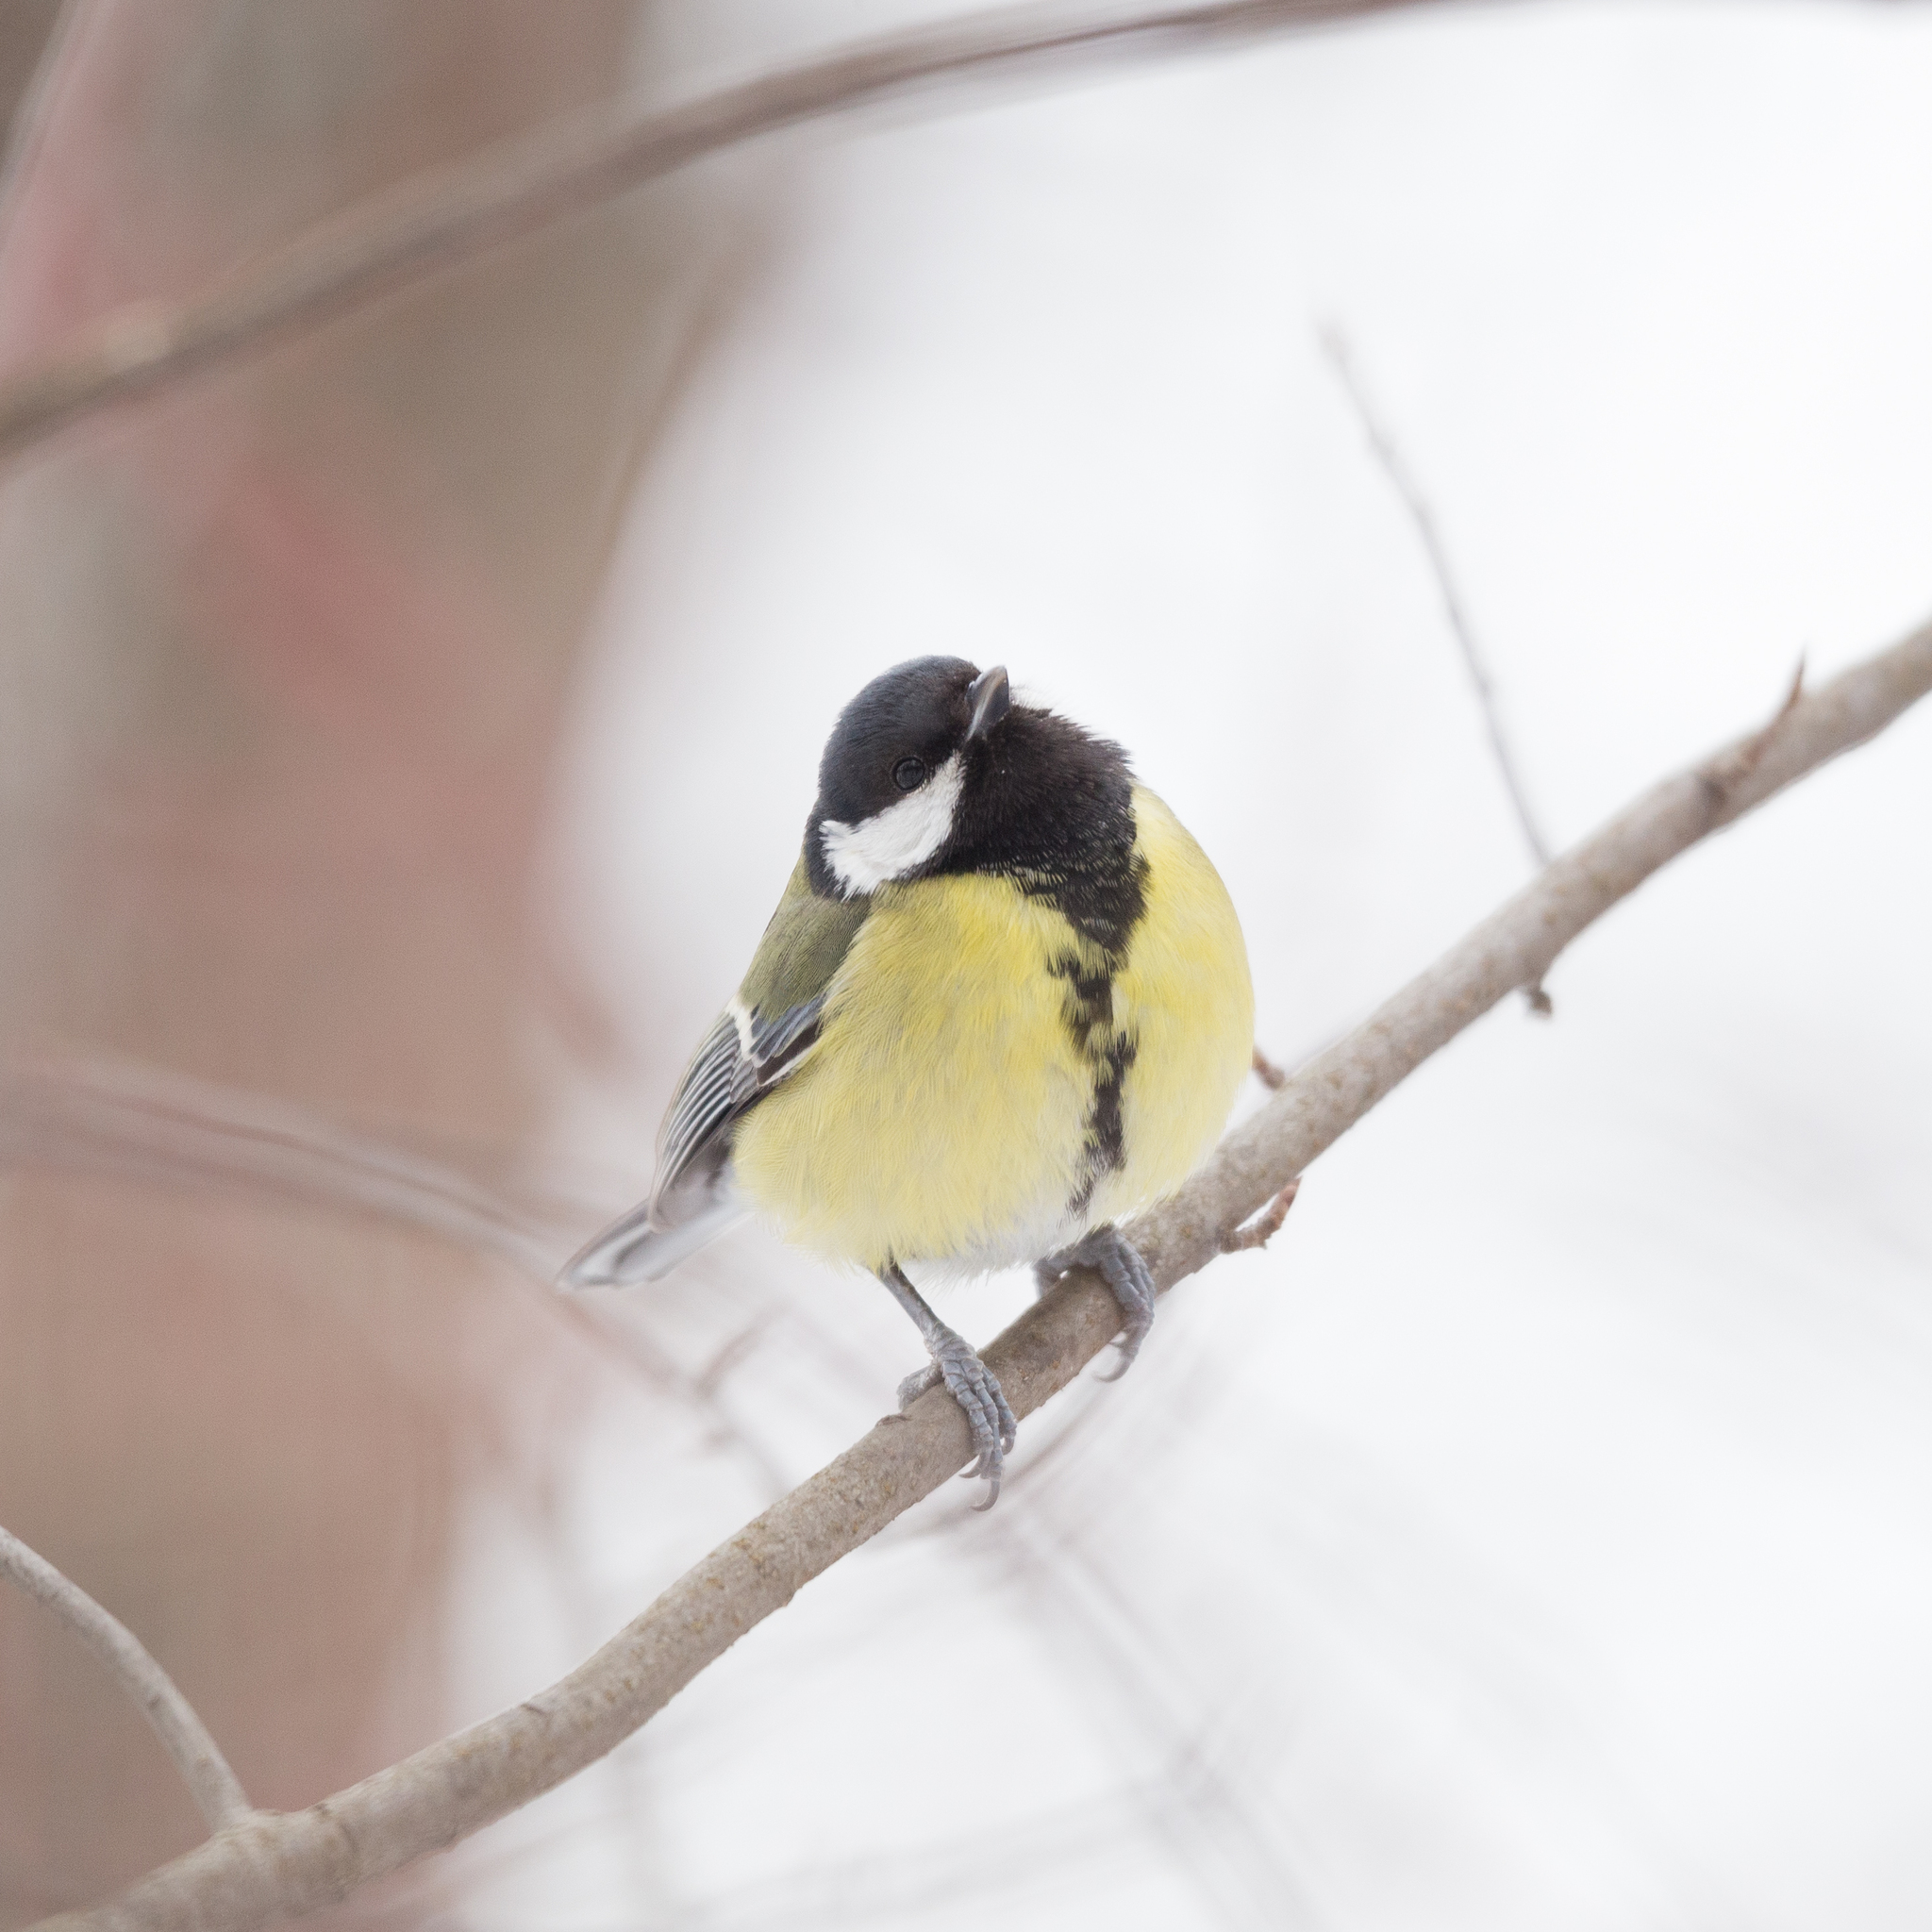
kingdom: Animalia
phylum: Chordata
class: Aves
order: Passeriformes
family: Paridae
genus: Parus
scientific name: Parus major
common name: Great tit
